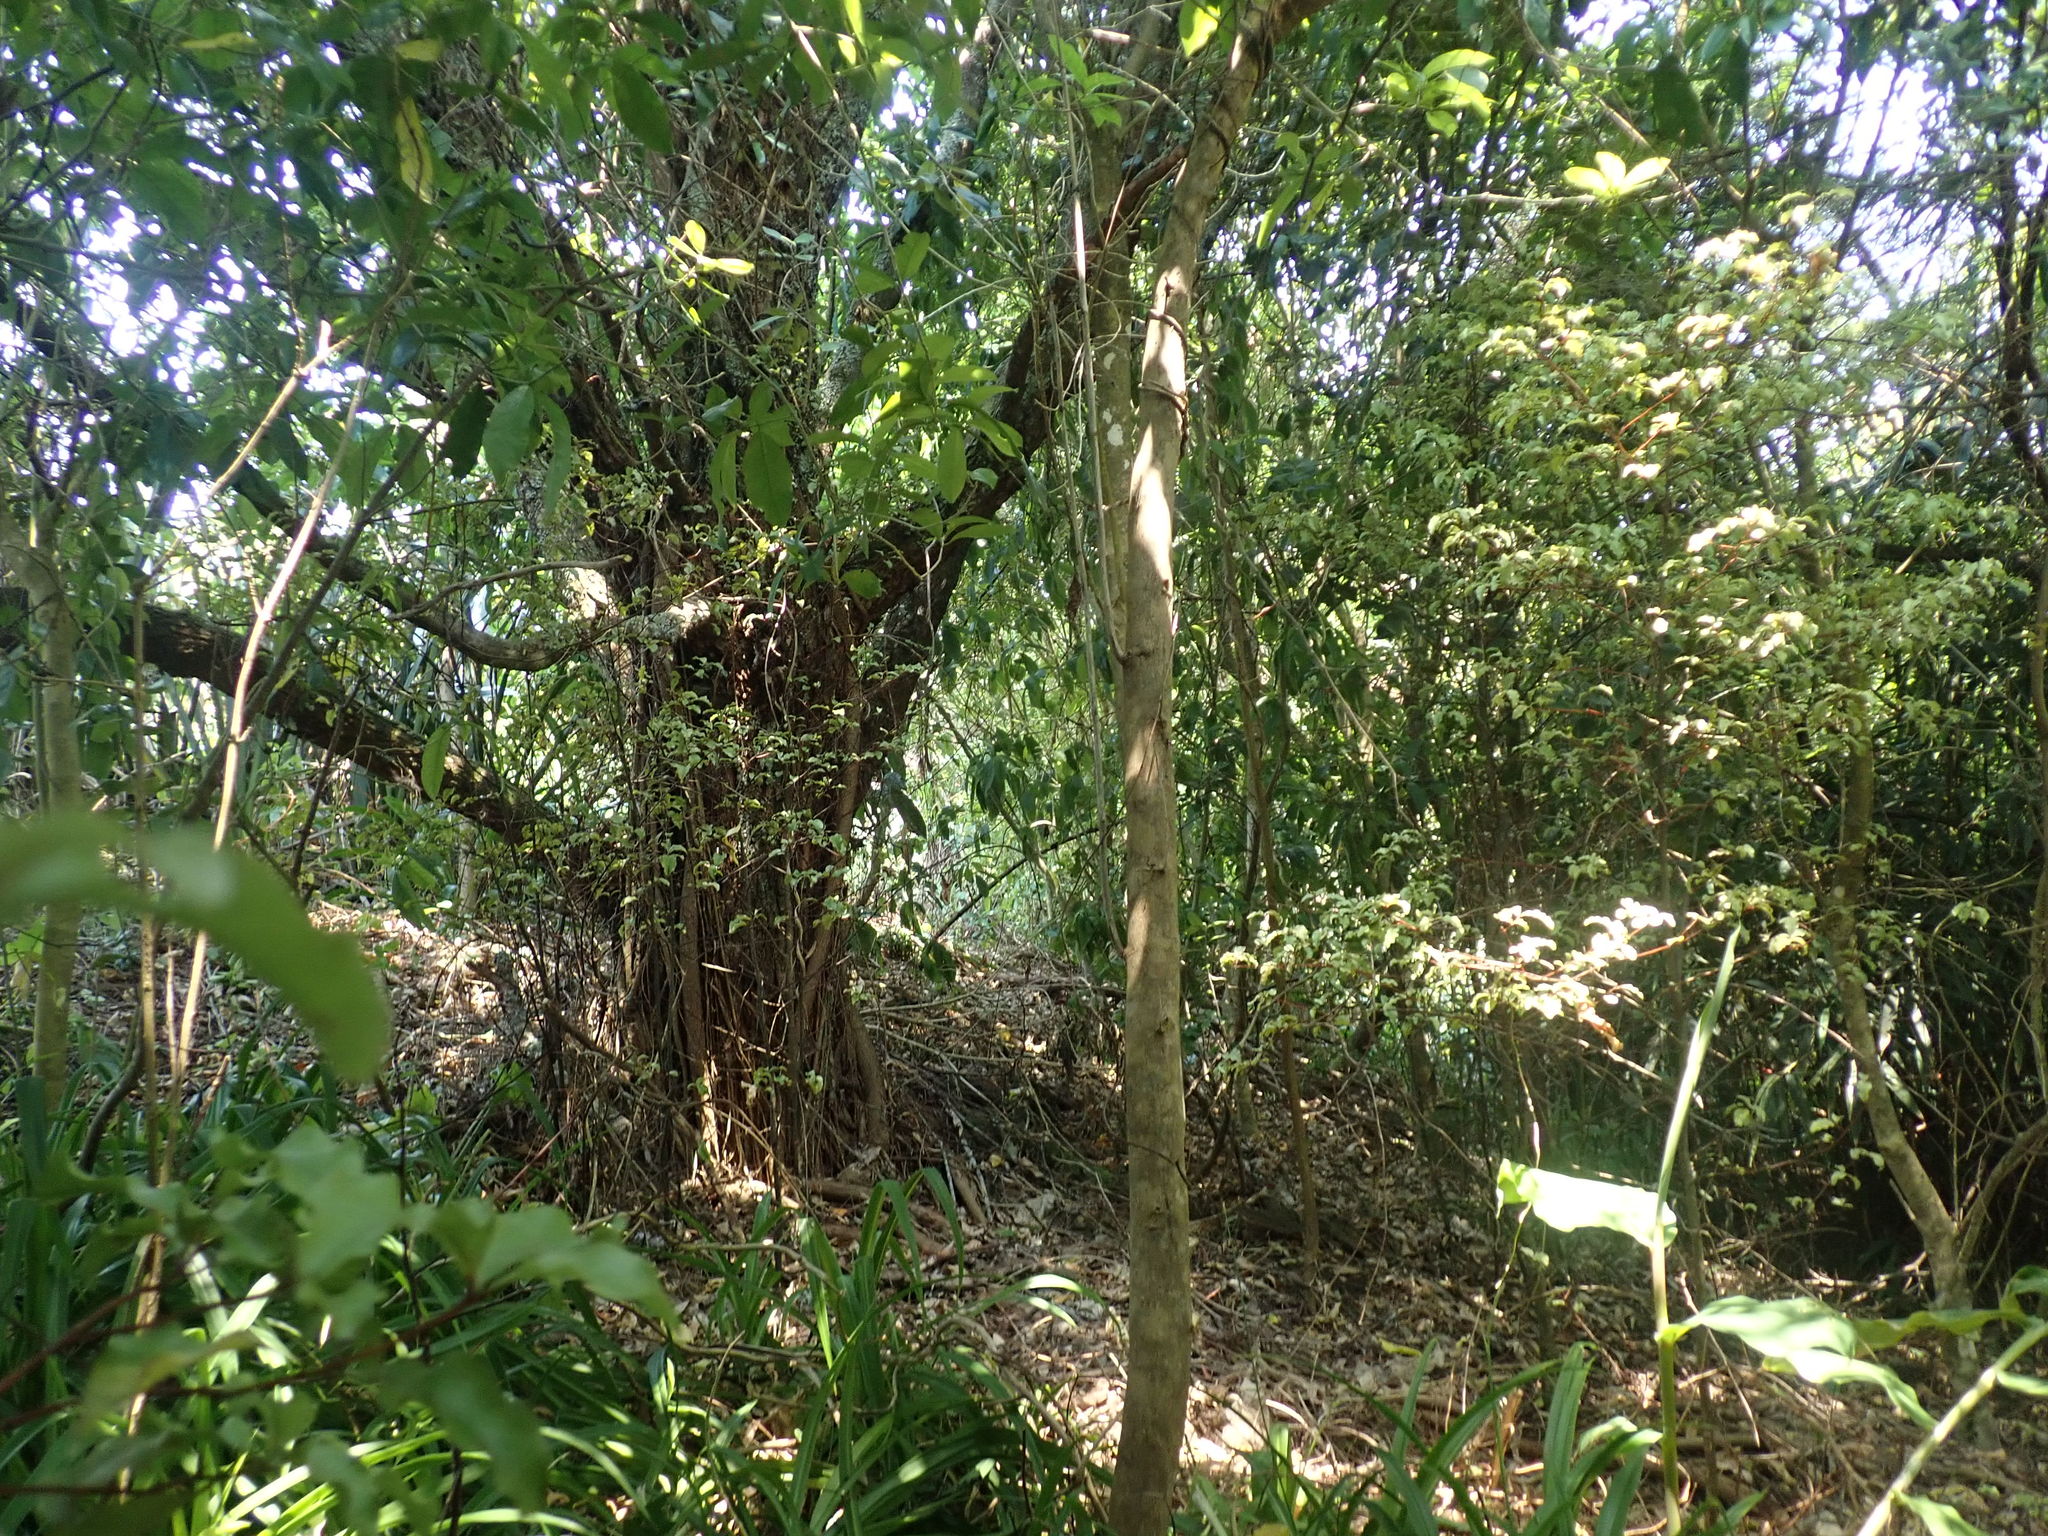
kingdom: Plantae
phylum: Tracheophyta
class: Magnoliopsida
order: Dipsacales
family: Caprifoliaceae
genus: Lonicera
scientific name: Lonicera japonica
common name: Japanese honeysuckle
